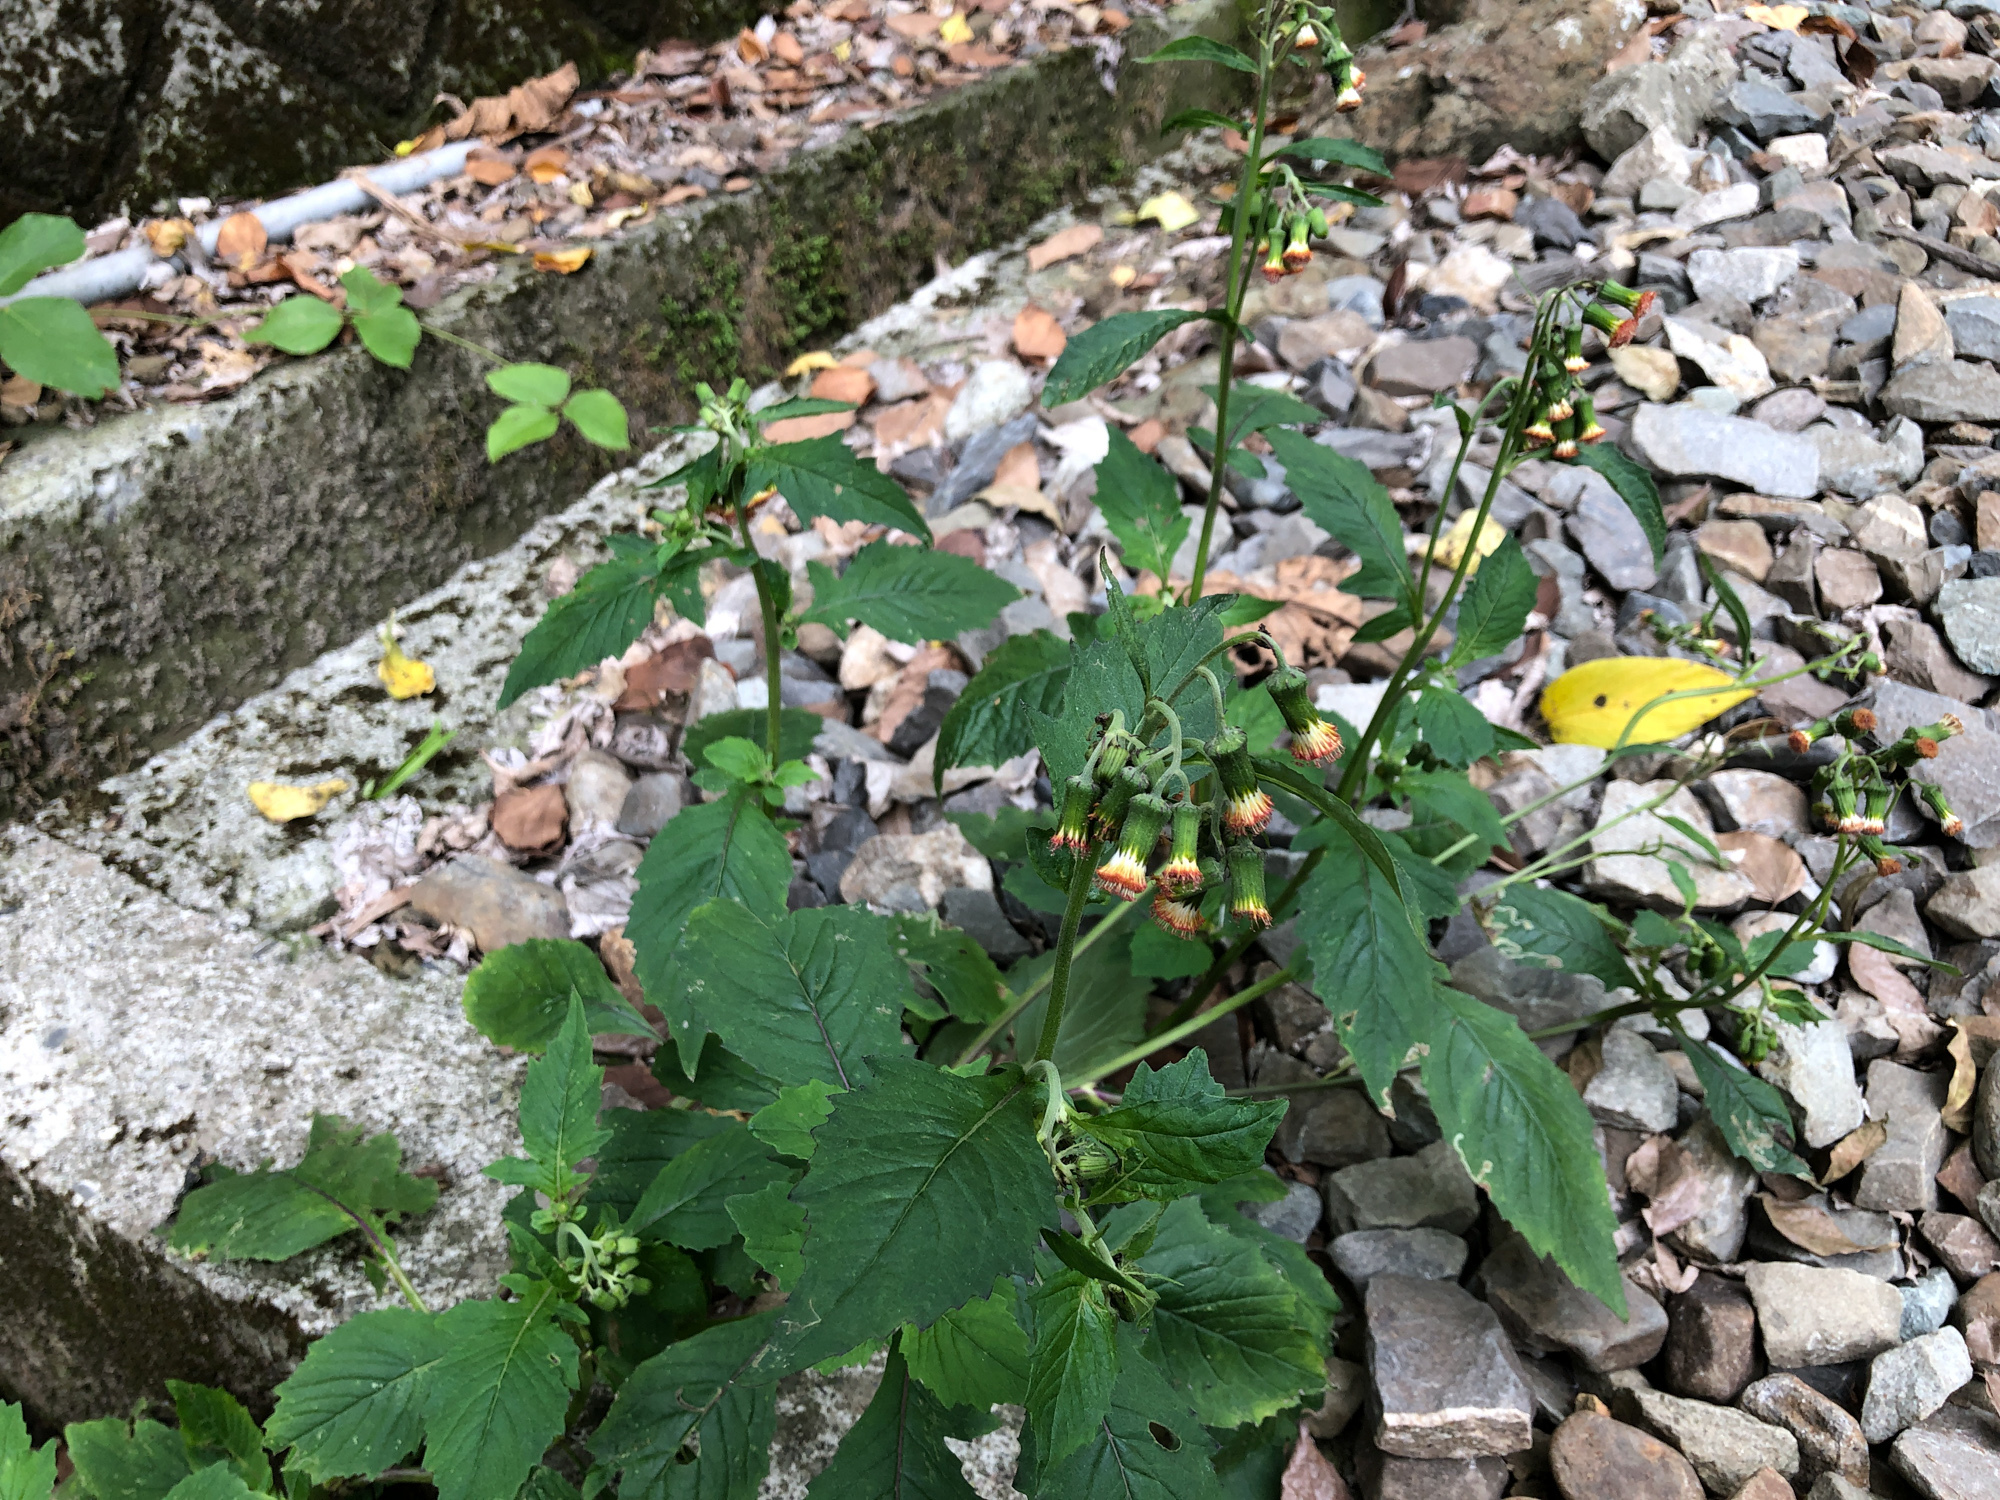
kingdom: Plantae
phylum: Tracheophyta
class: Magnoliopsida
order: Asterales
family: Asteraceae
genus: Crassocephalum
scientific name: Crassocephalum crepidioides
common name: Redflower ragleaf
